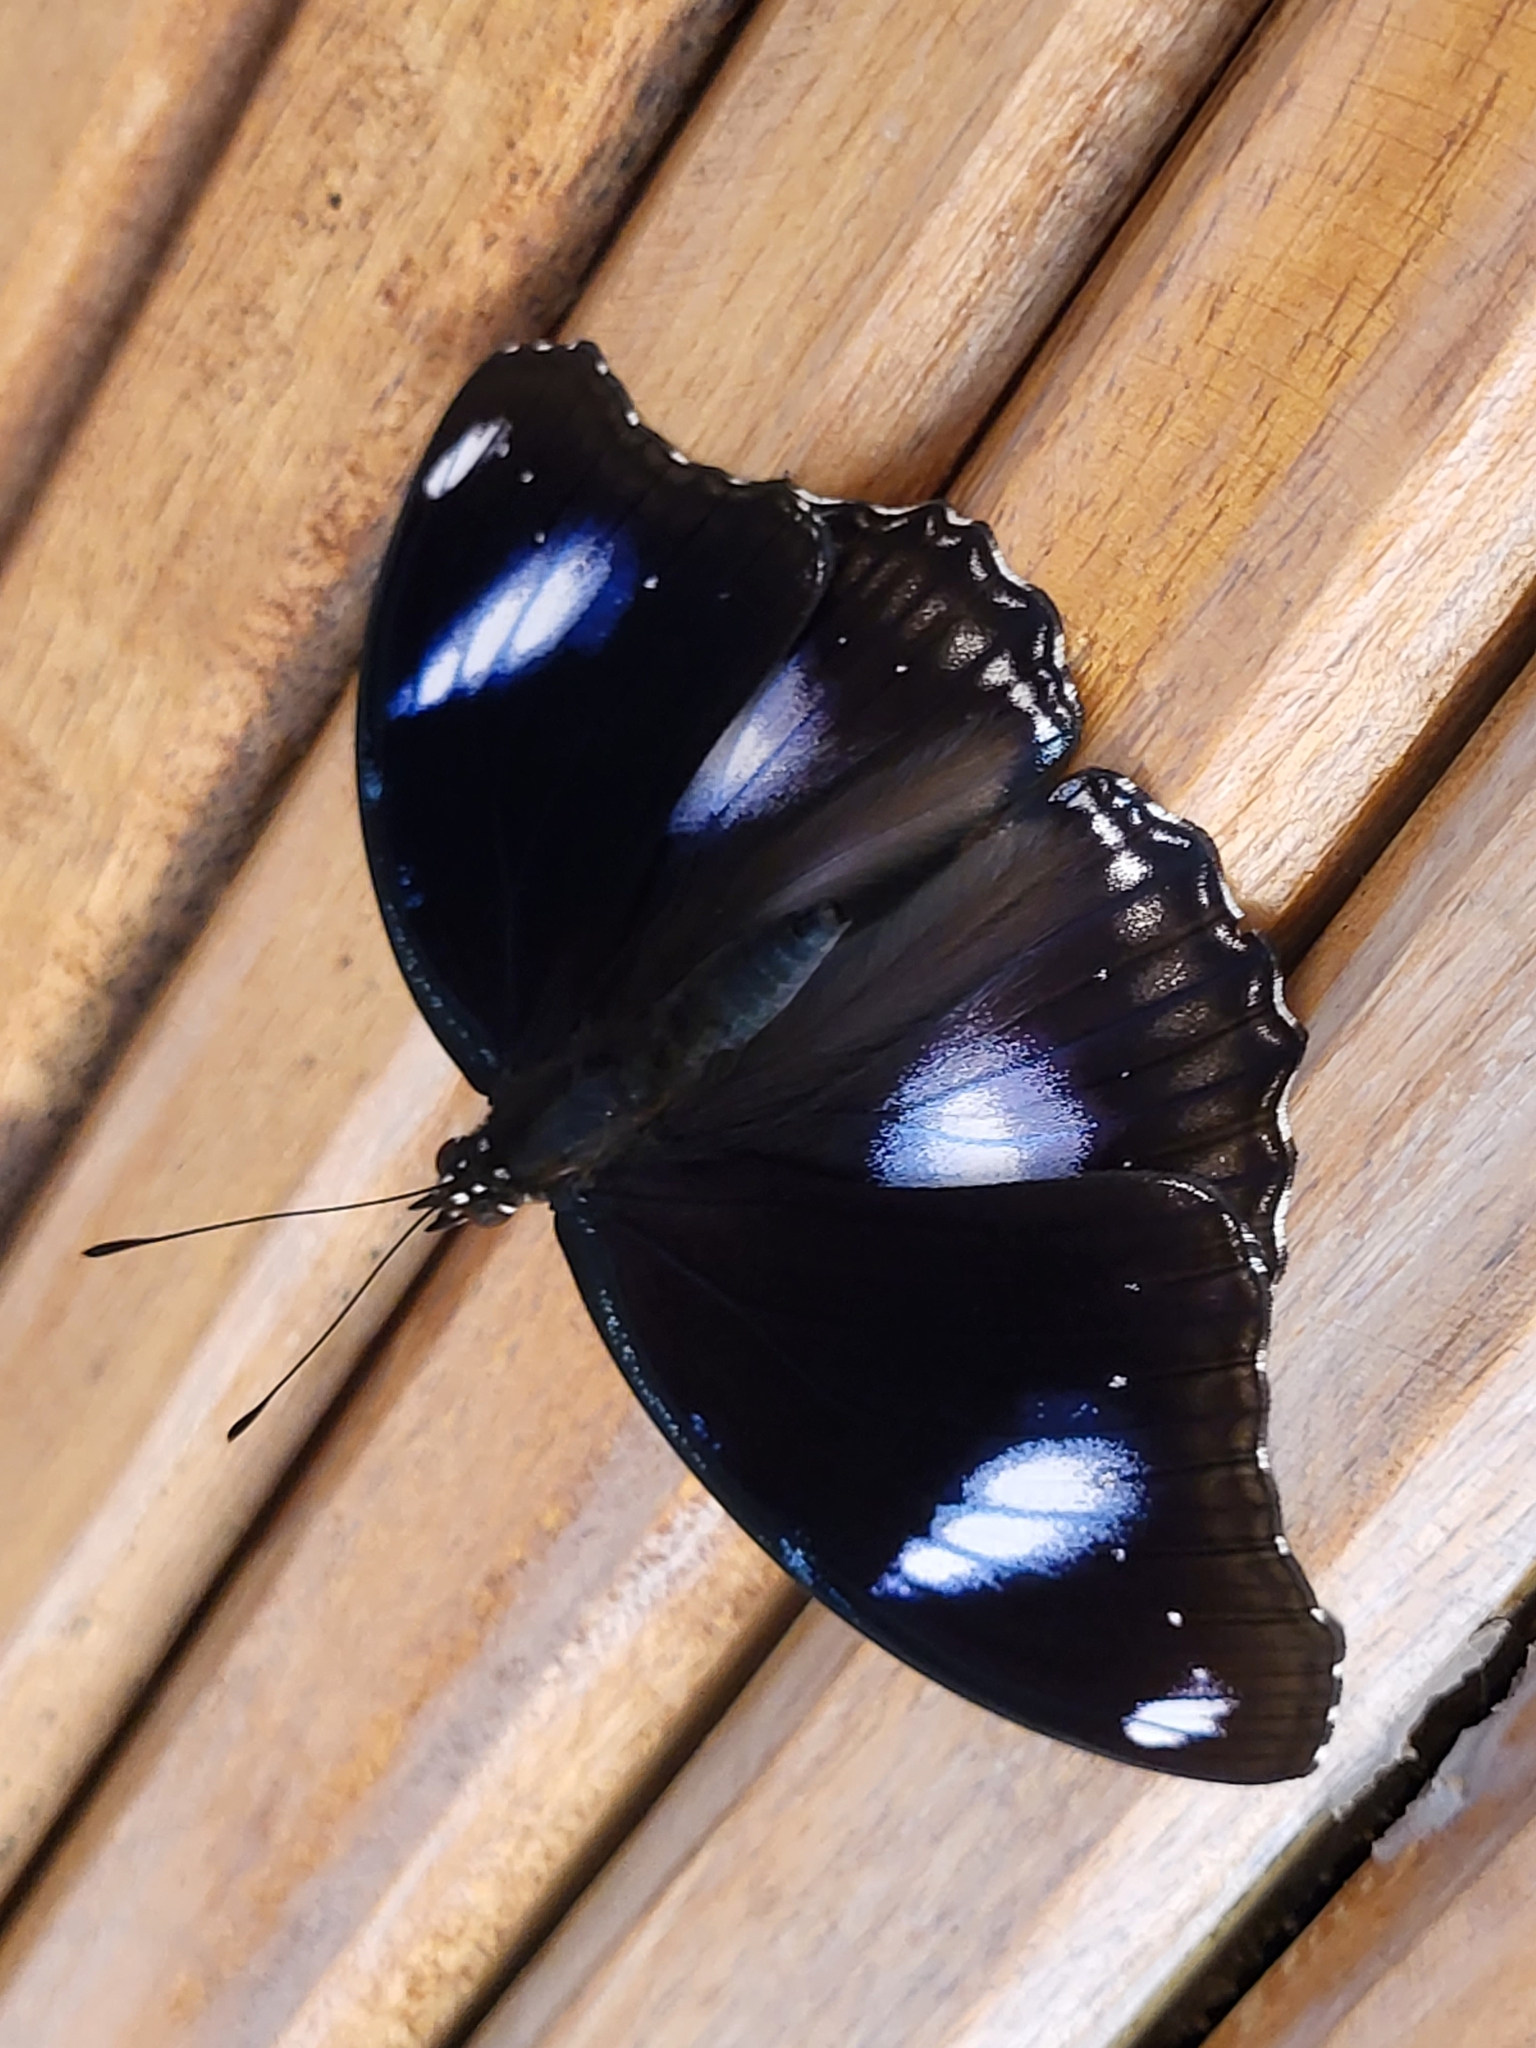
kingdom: Animalia
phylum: Arthropoda
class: Insecta
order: Lepidoptera
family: Nymphalidae
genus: Hypolimnas
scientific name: Hypolimnas bolina
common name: Great eggfly
